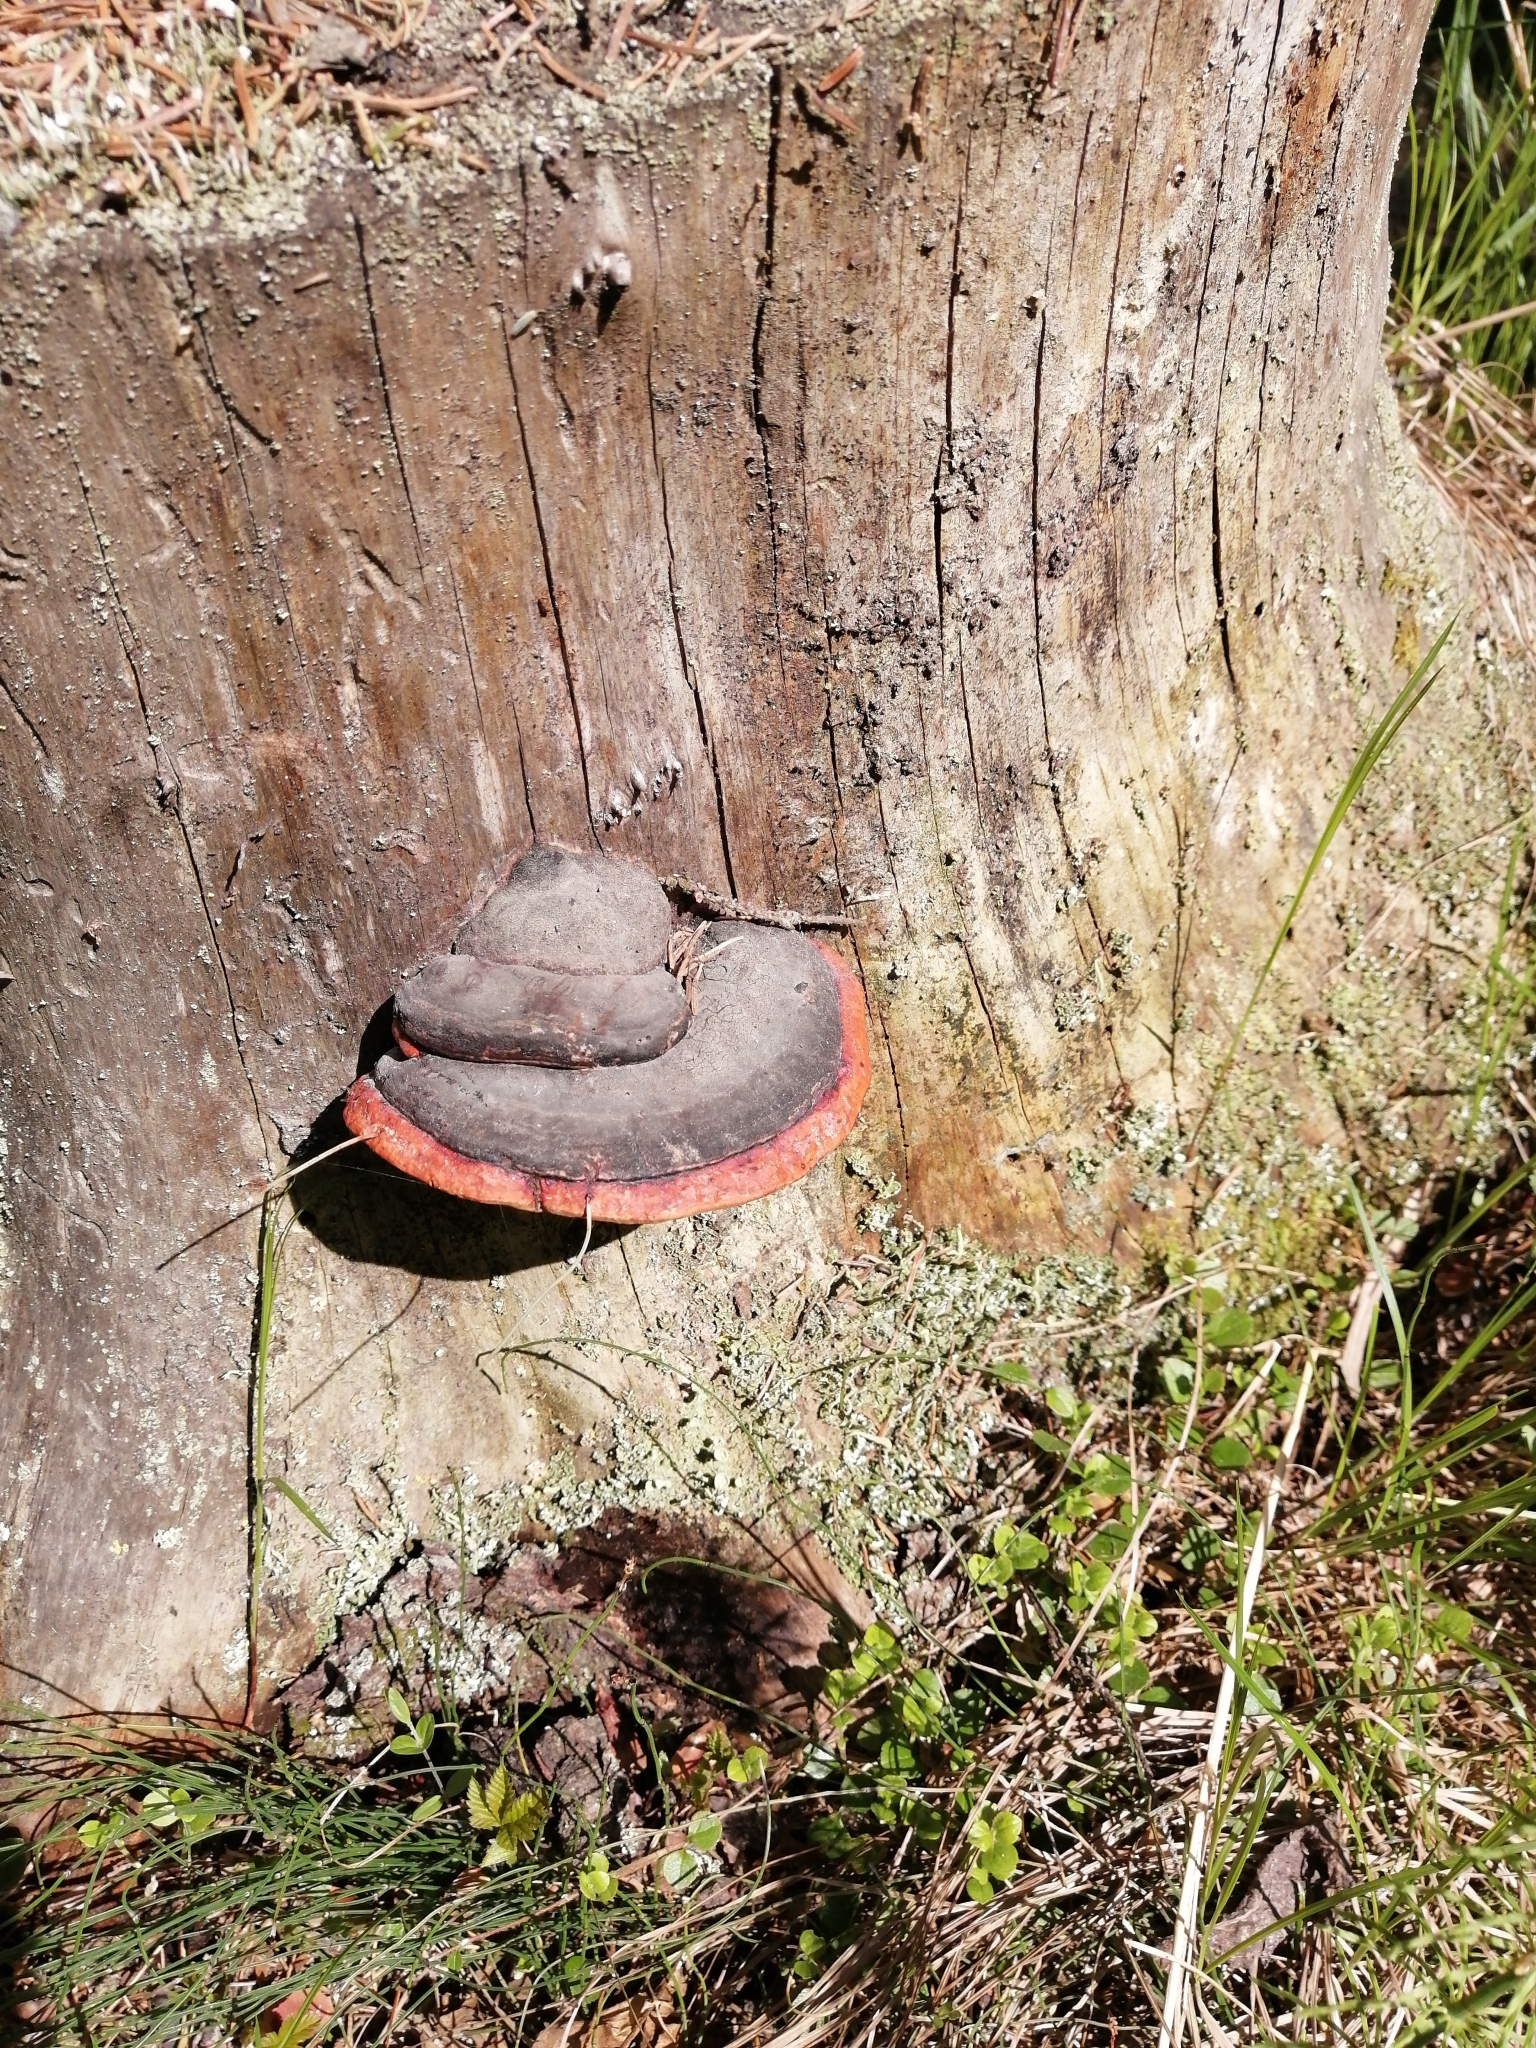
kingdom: Fungi
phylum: Basidiomycota
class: Agaricomycetes
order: Polyporales
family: Fomitopsidaceae
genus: Fomitopsis
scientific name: Fomitopsis pinicola
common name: Red-belted bracket
